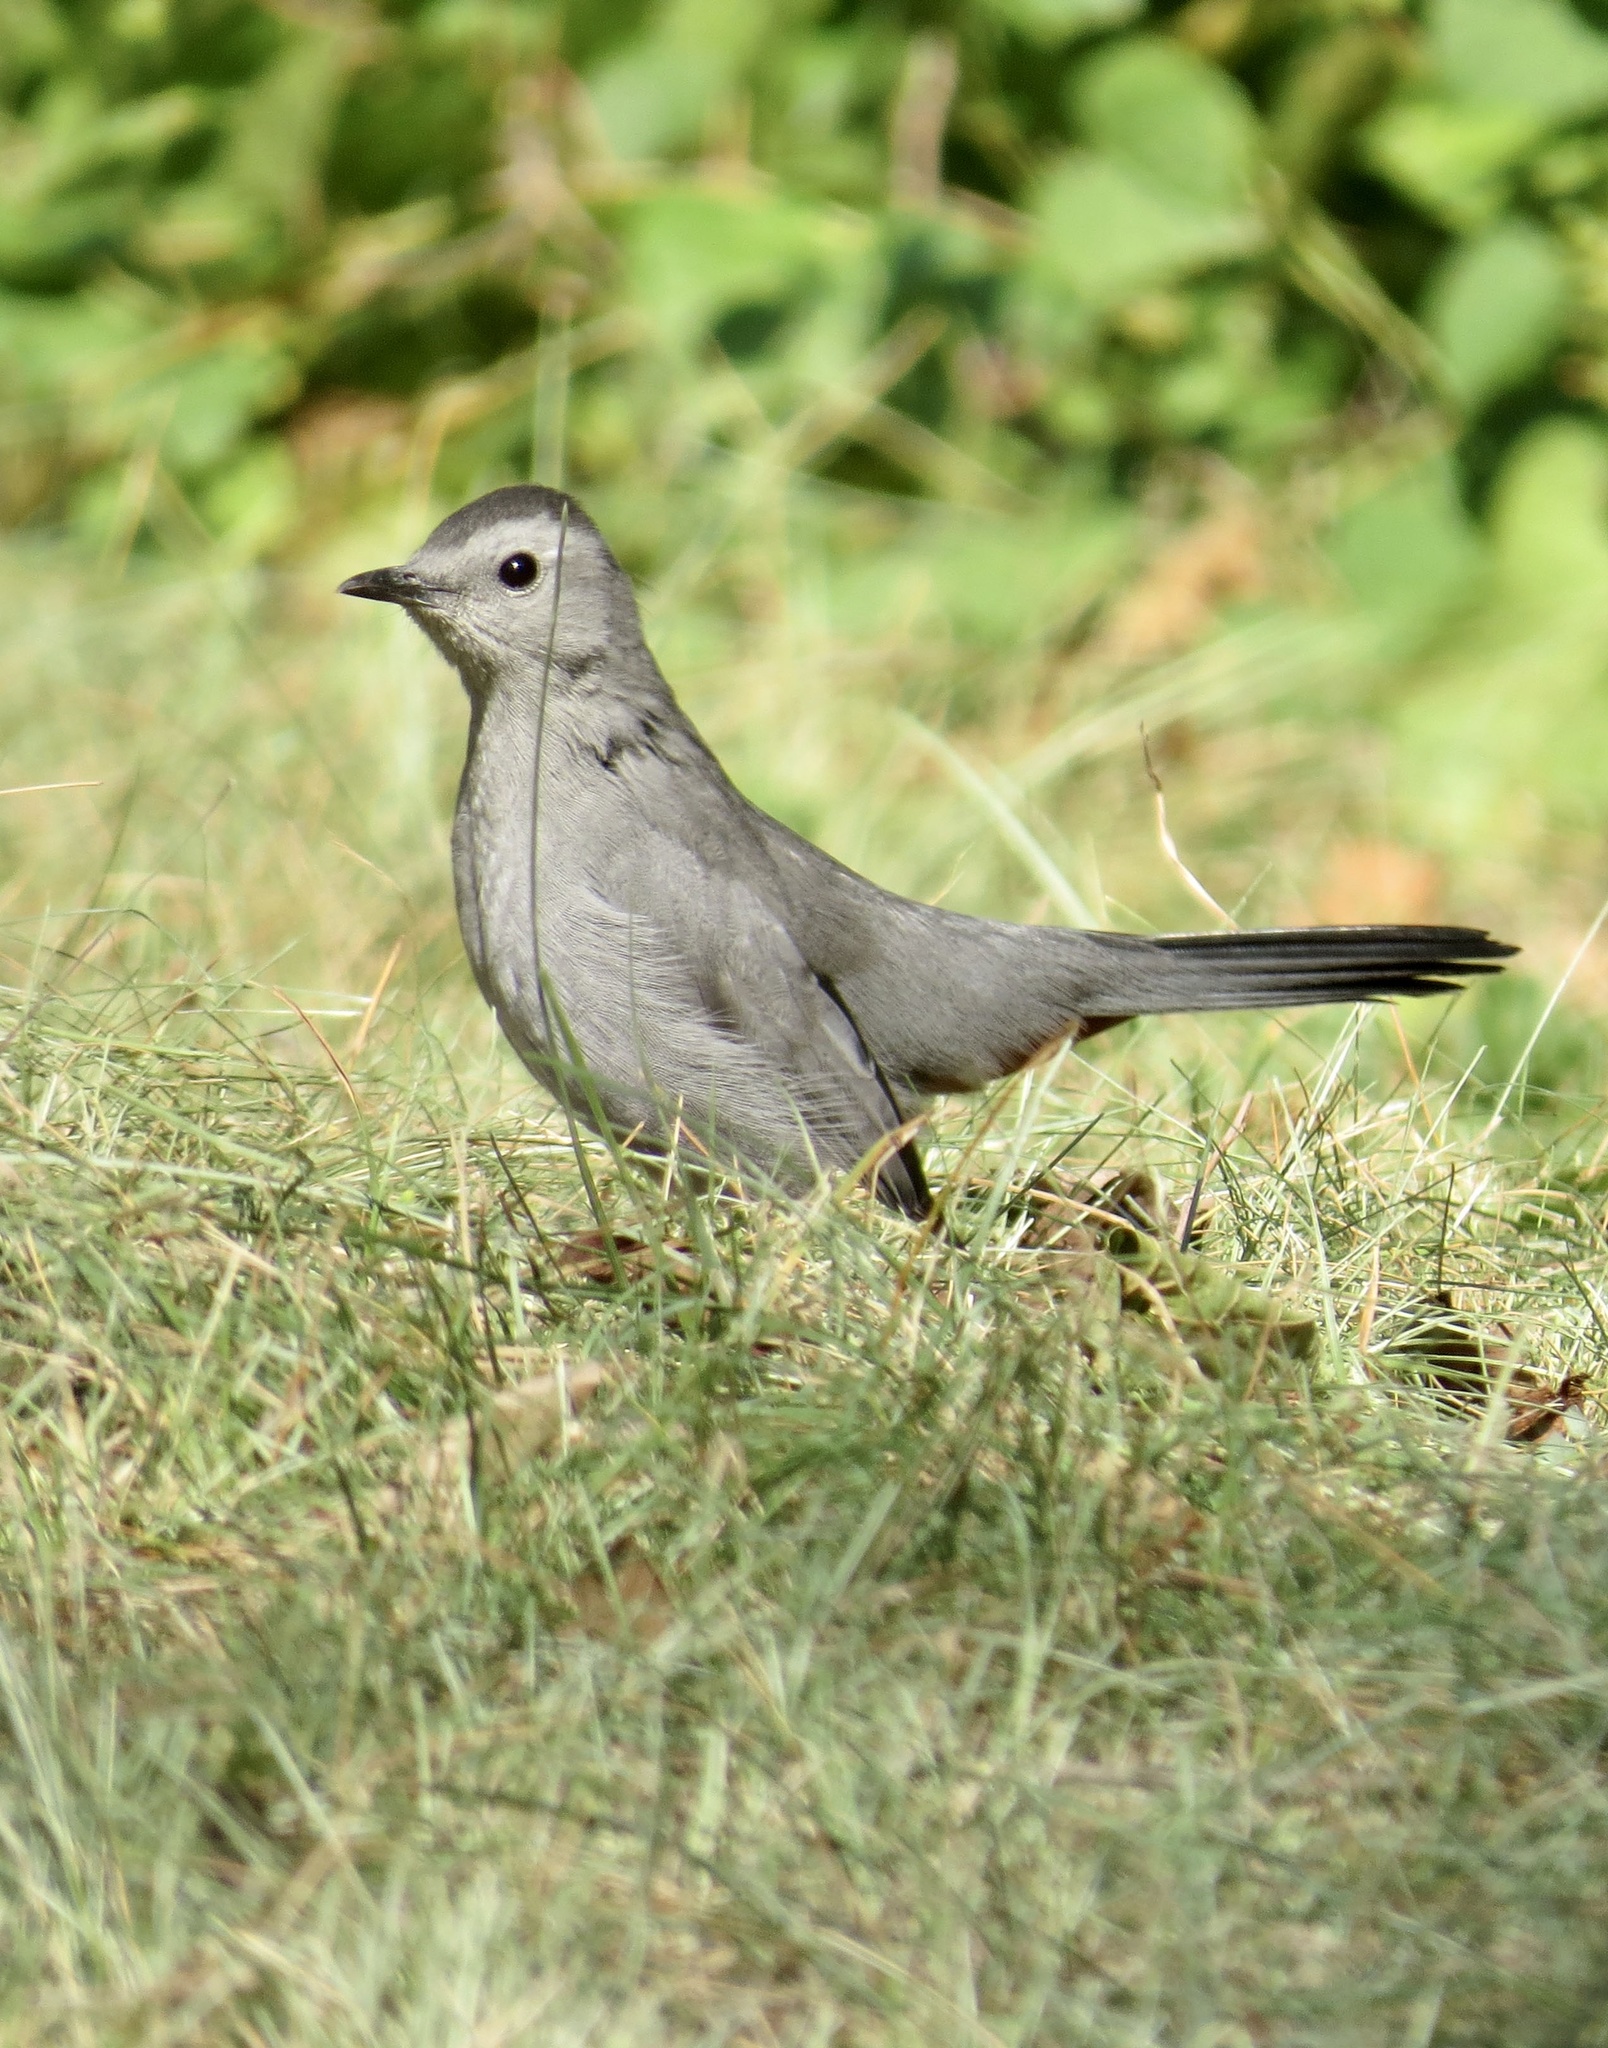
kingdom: Animalia
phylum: Chordata
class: Aves
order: Passeriformes
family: Mimidae
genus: Dumetella
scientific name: Dumetella carolinensis
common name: Gray catbird
